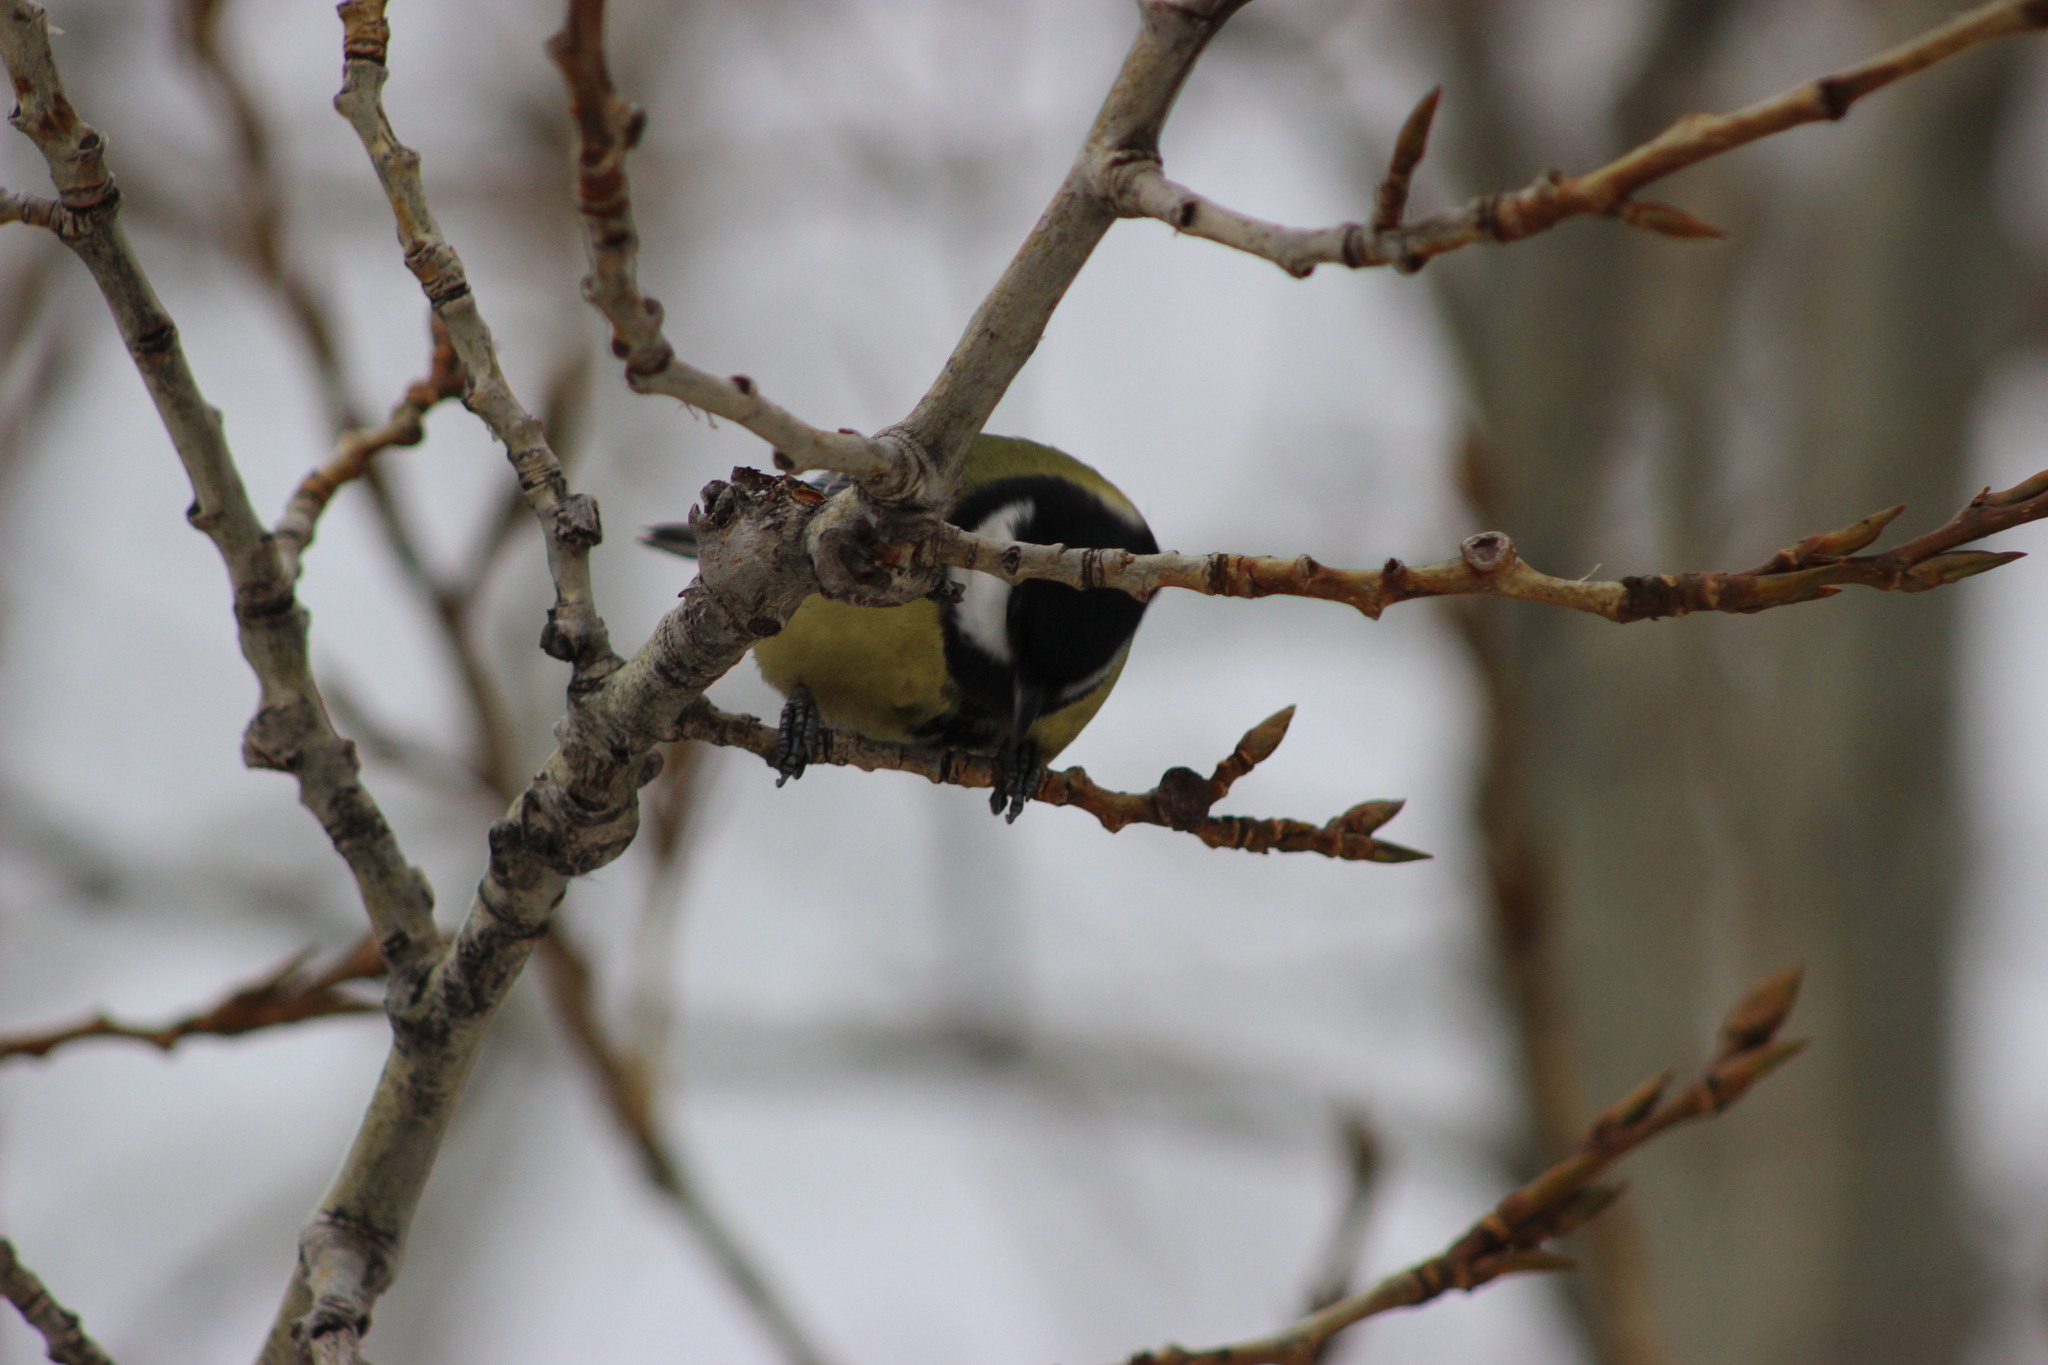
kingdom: Animalia
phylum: Chordata
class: Aves
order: Passeriformes
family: Paridae
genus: Parus
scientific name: Parus major
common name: Great tit
